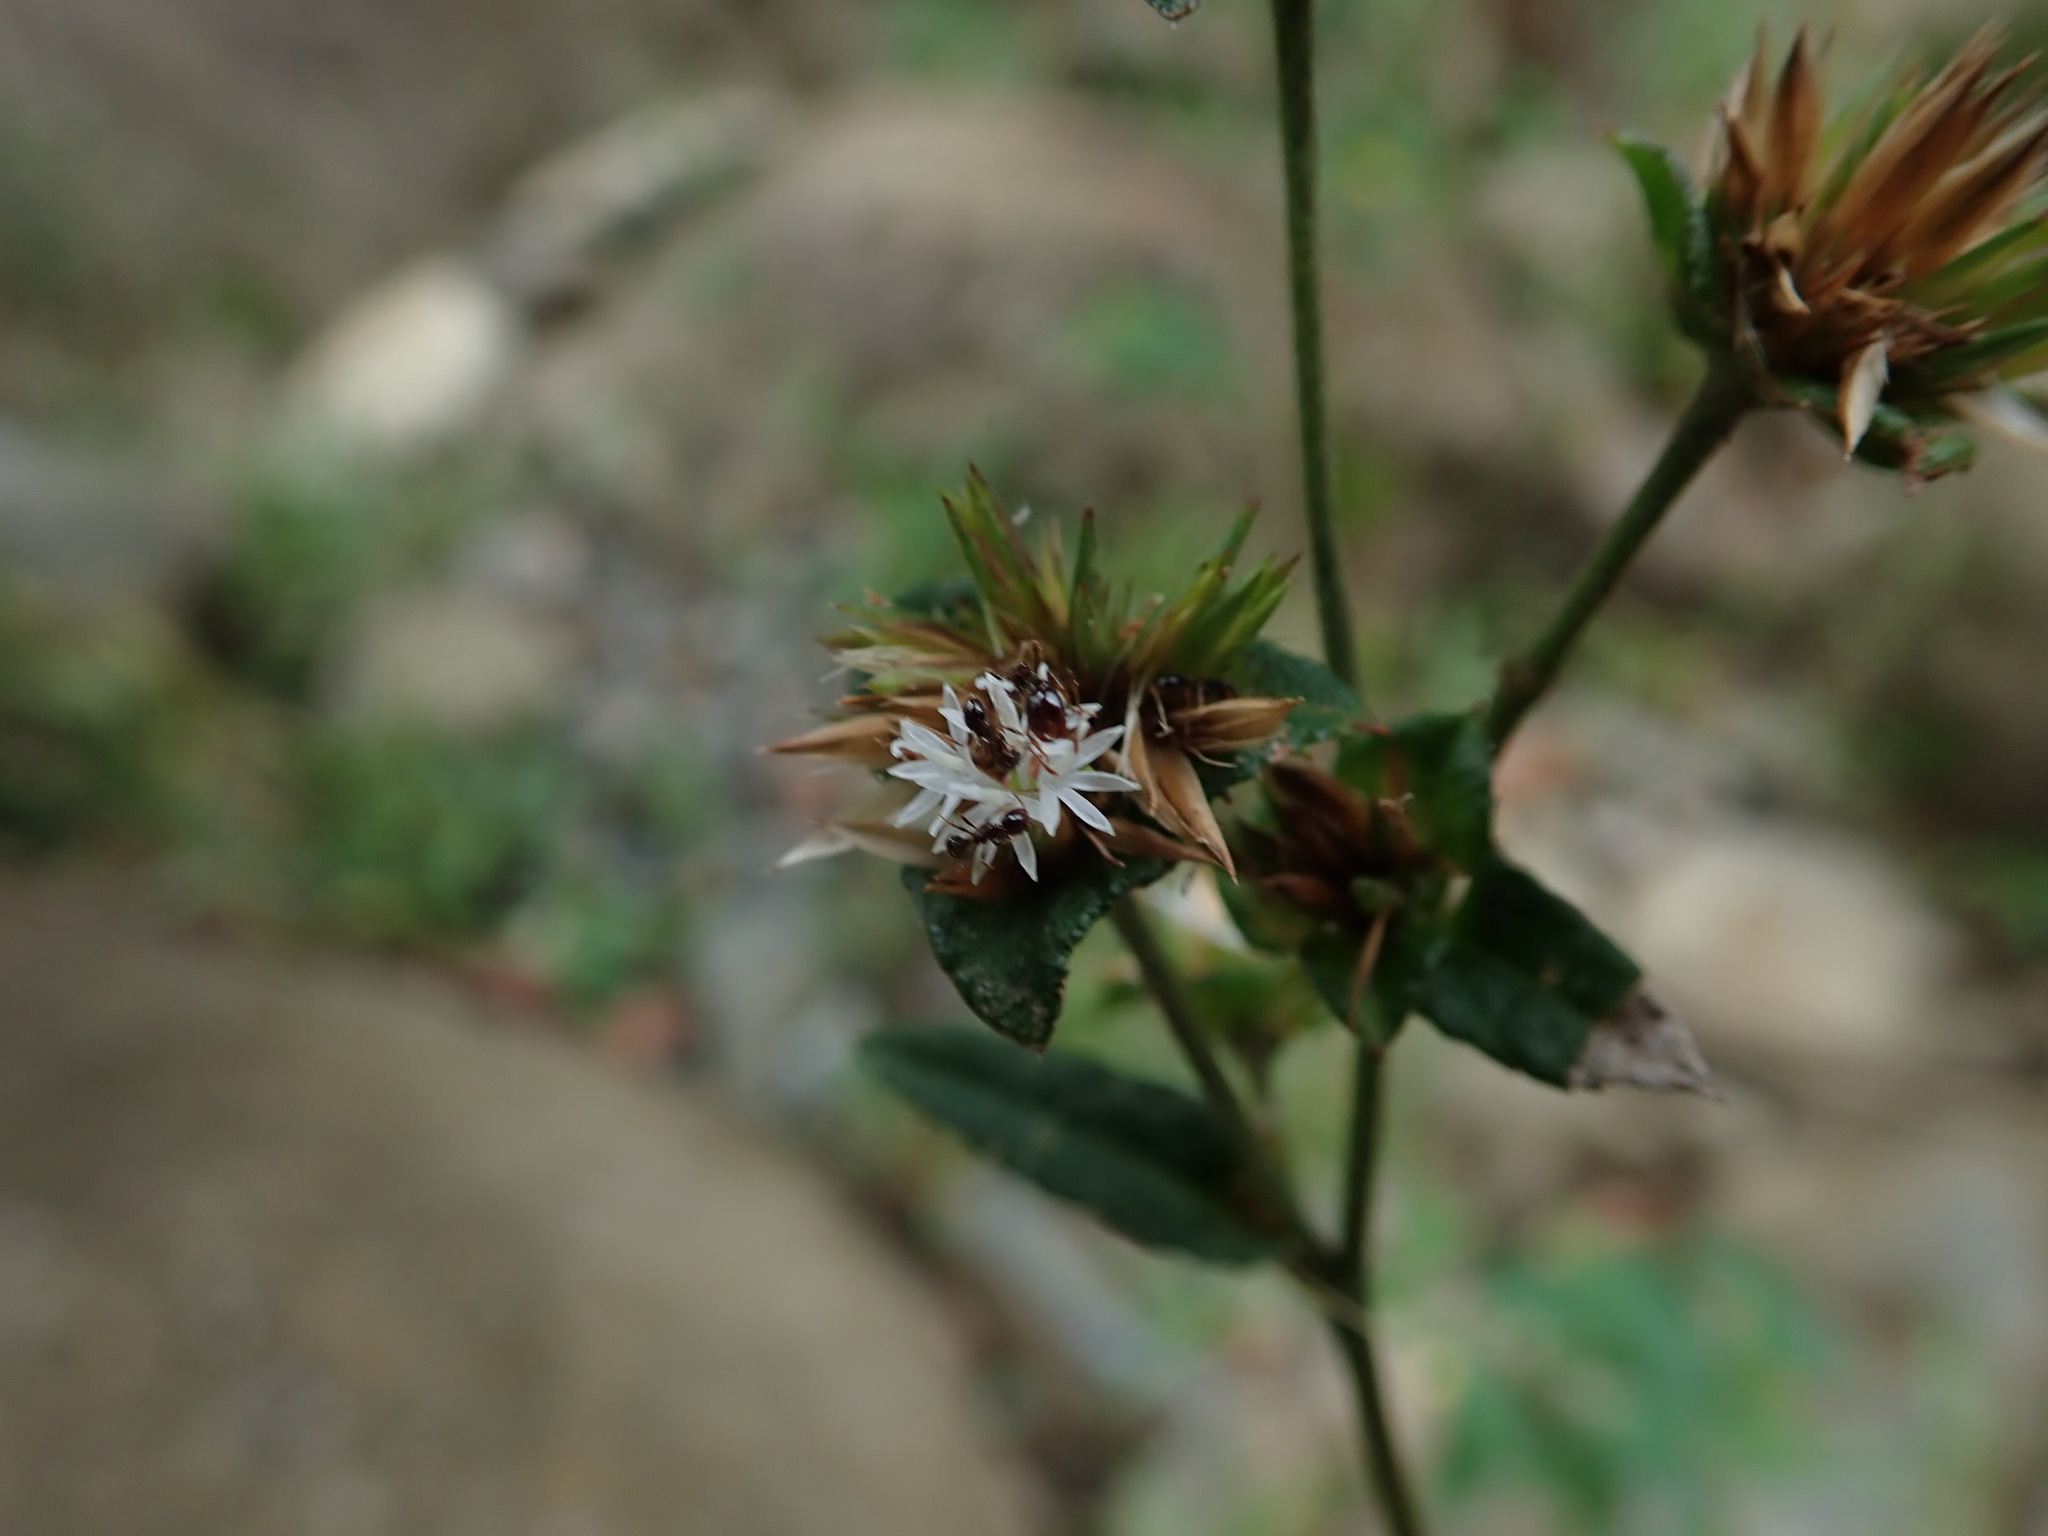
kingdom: Plantae
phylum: Tracheophyta
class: Magnoliopsida
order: Asterales
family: Asteraceae
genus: Elephantopus
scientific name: Elephantopus mollis
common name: Soft elephantsfoot
